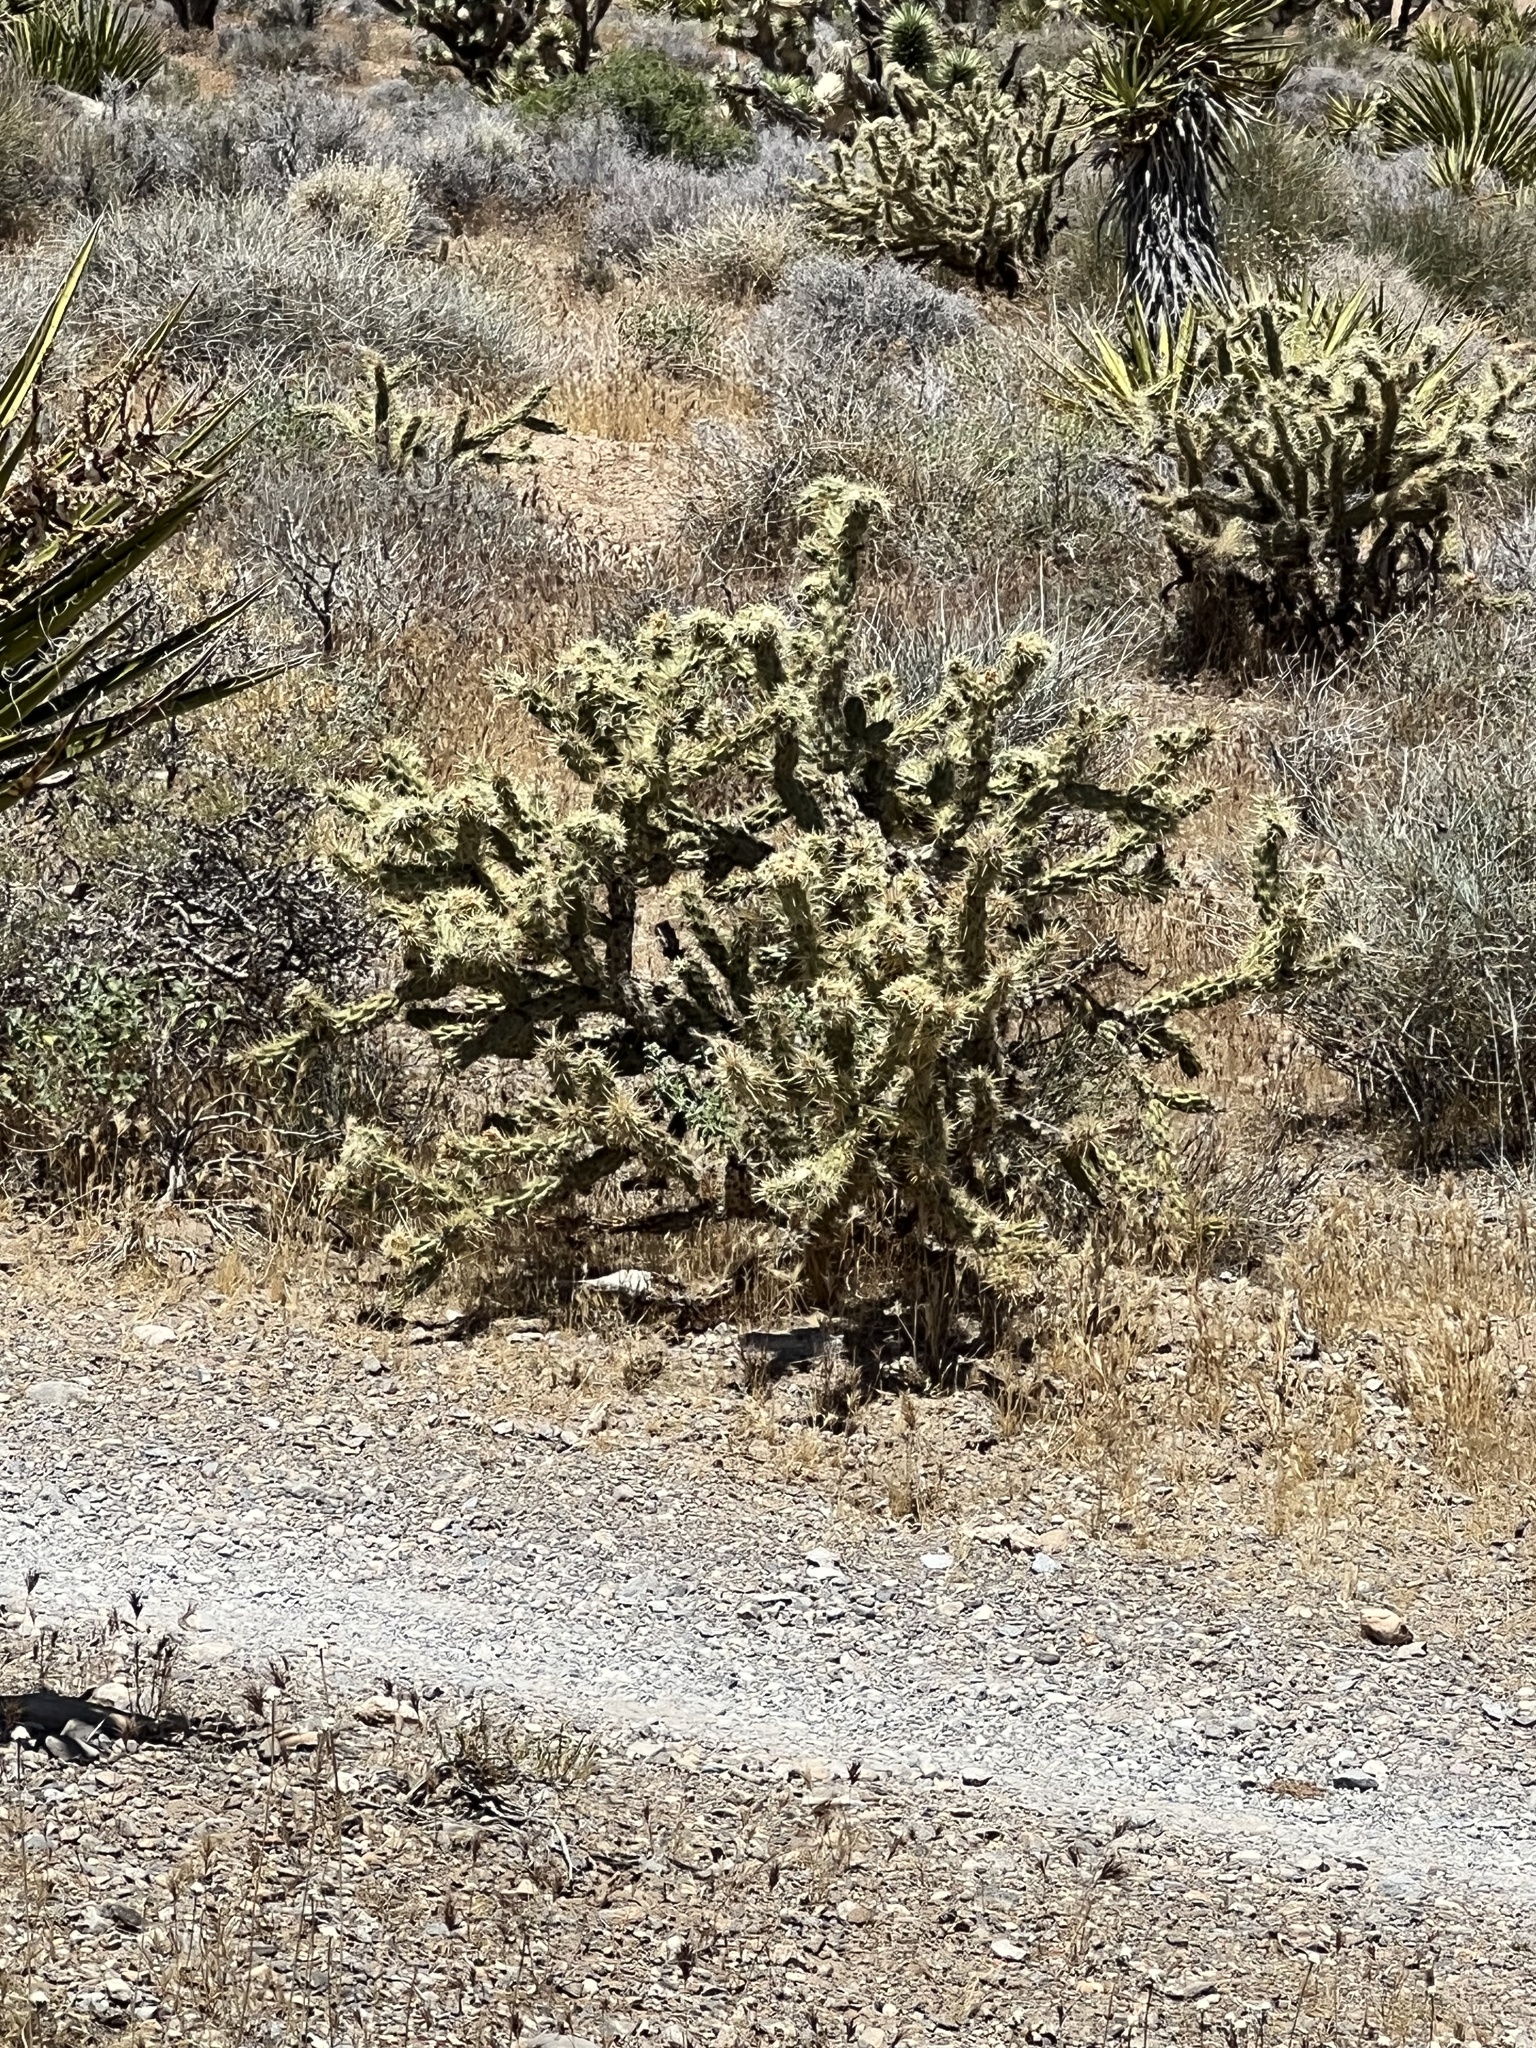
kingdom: Plantae
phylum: Tracheophyta
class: Magnoliopsida
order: Caryophyllales
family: Cactaceae
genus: Cylindropuntia
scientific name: Cylindropuntia acanthocarpa
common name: Buckhorn cholla
